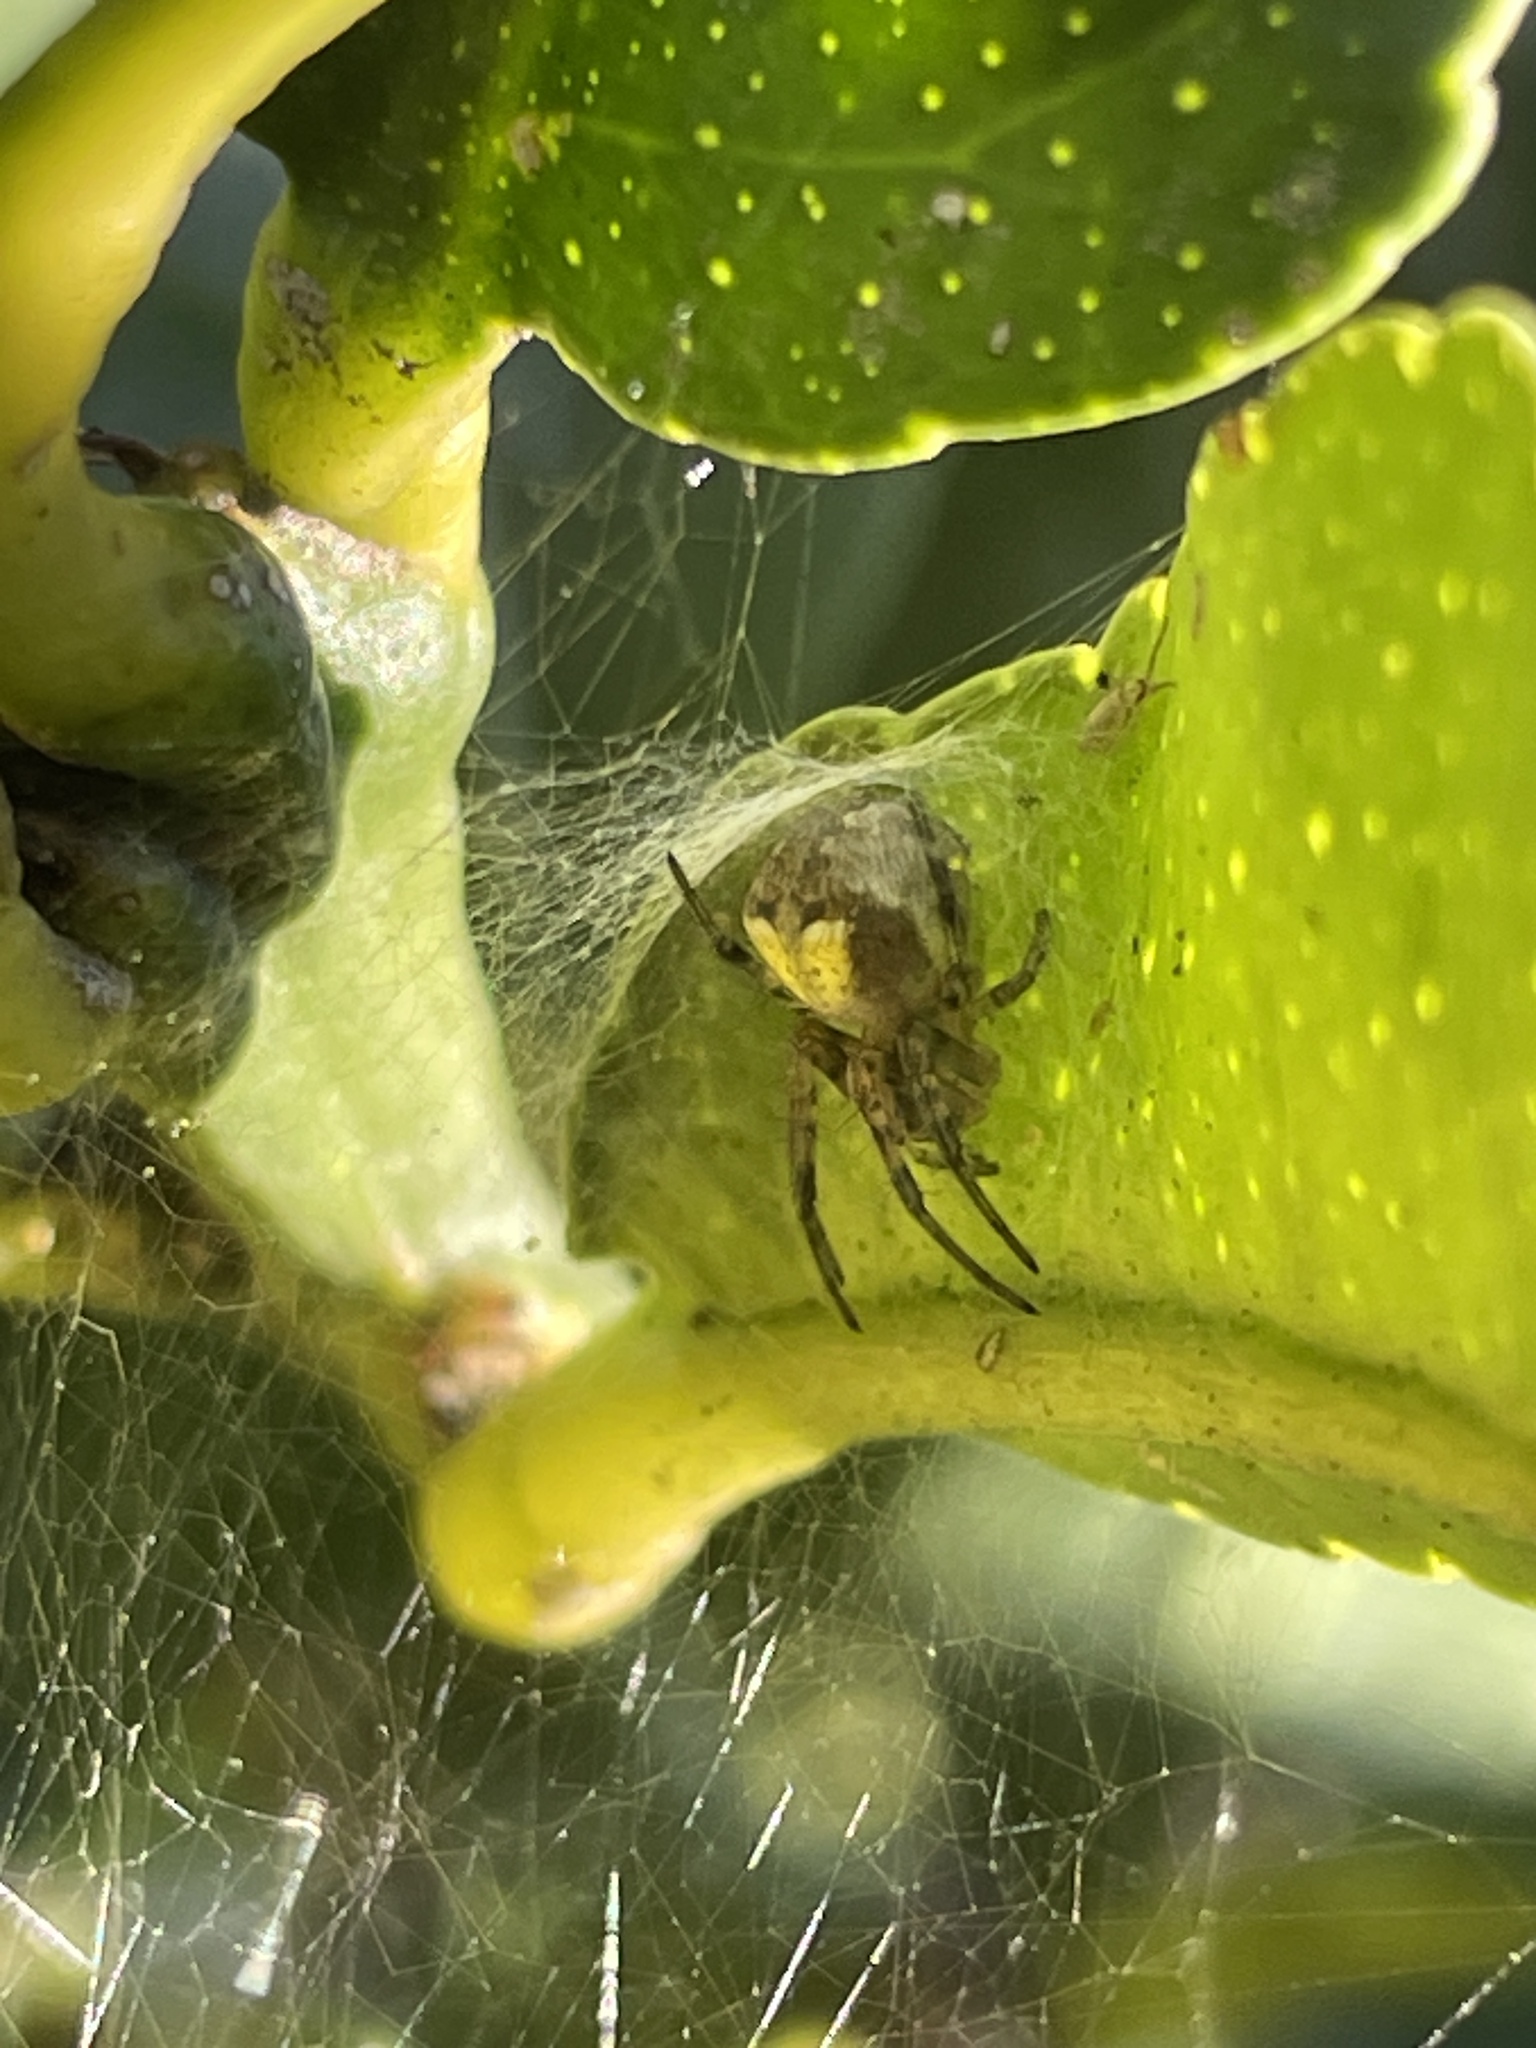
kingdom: Animalia
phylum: Arthropoda
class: Arachnida
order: Araneae
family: Araneidae
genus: Araneus
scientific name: Araneus albotriangulus
